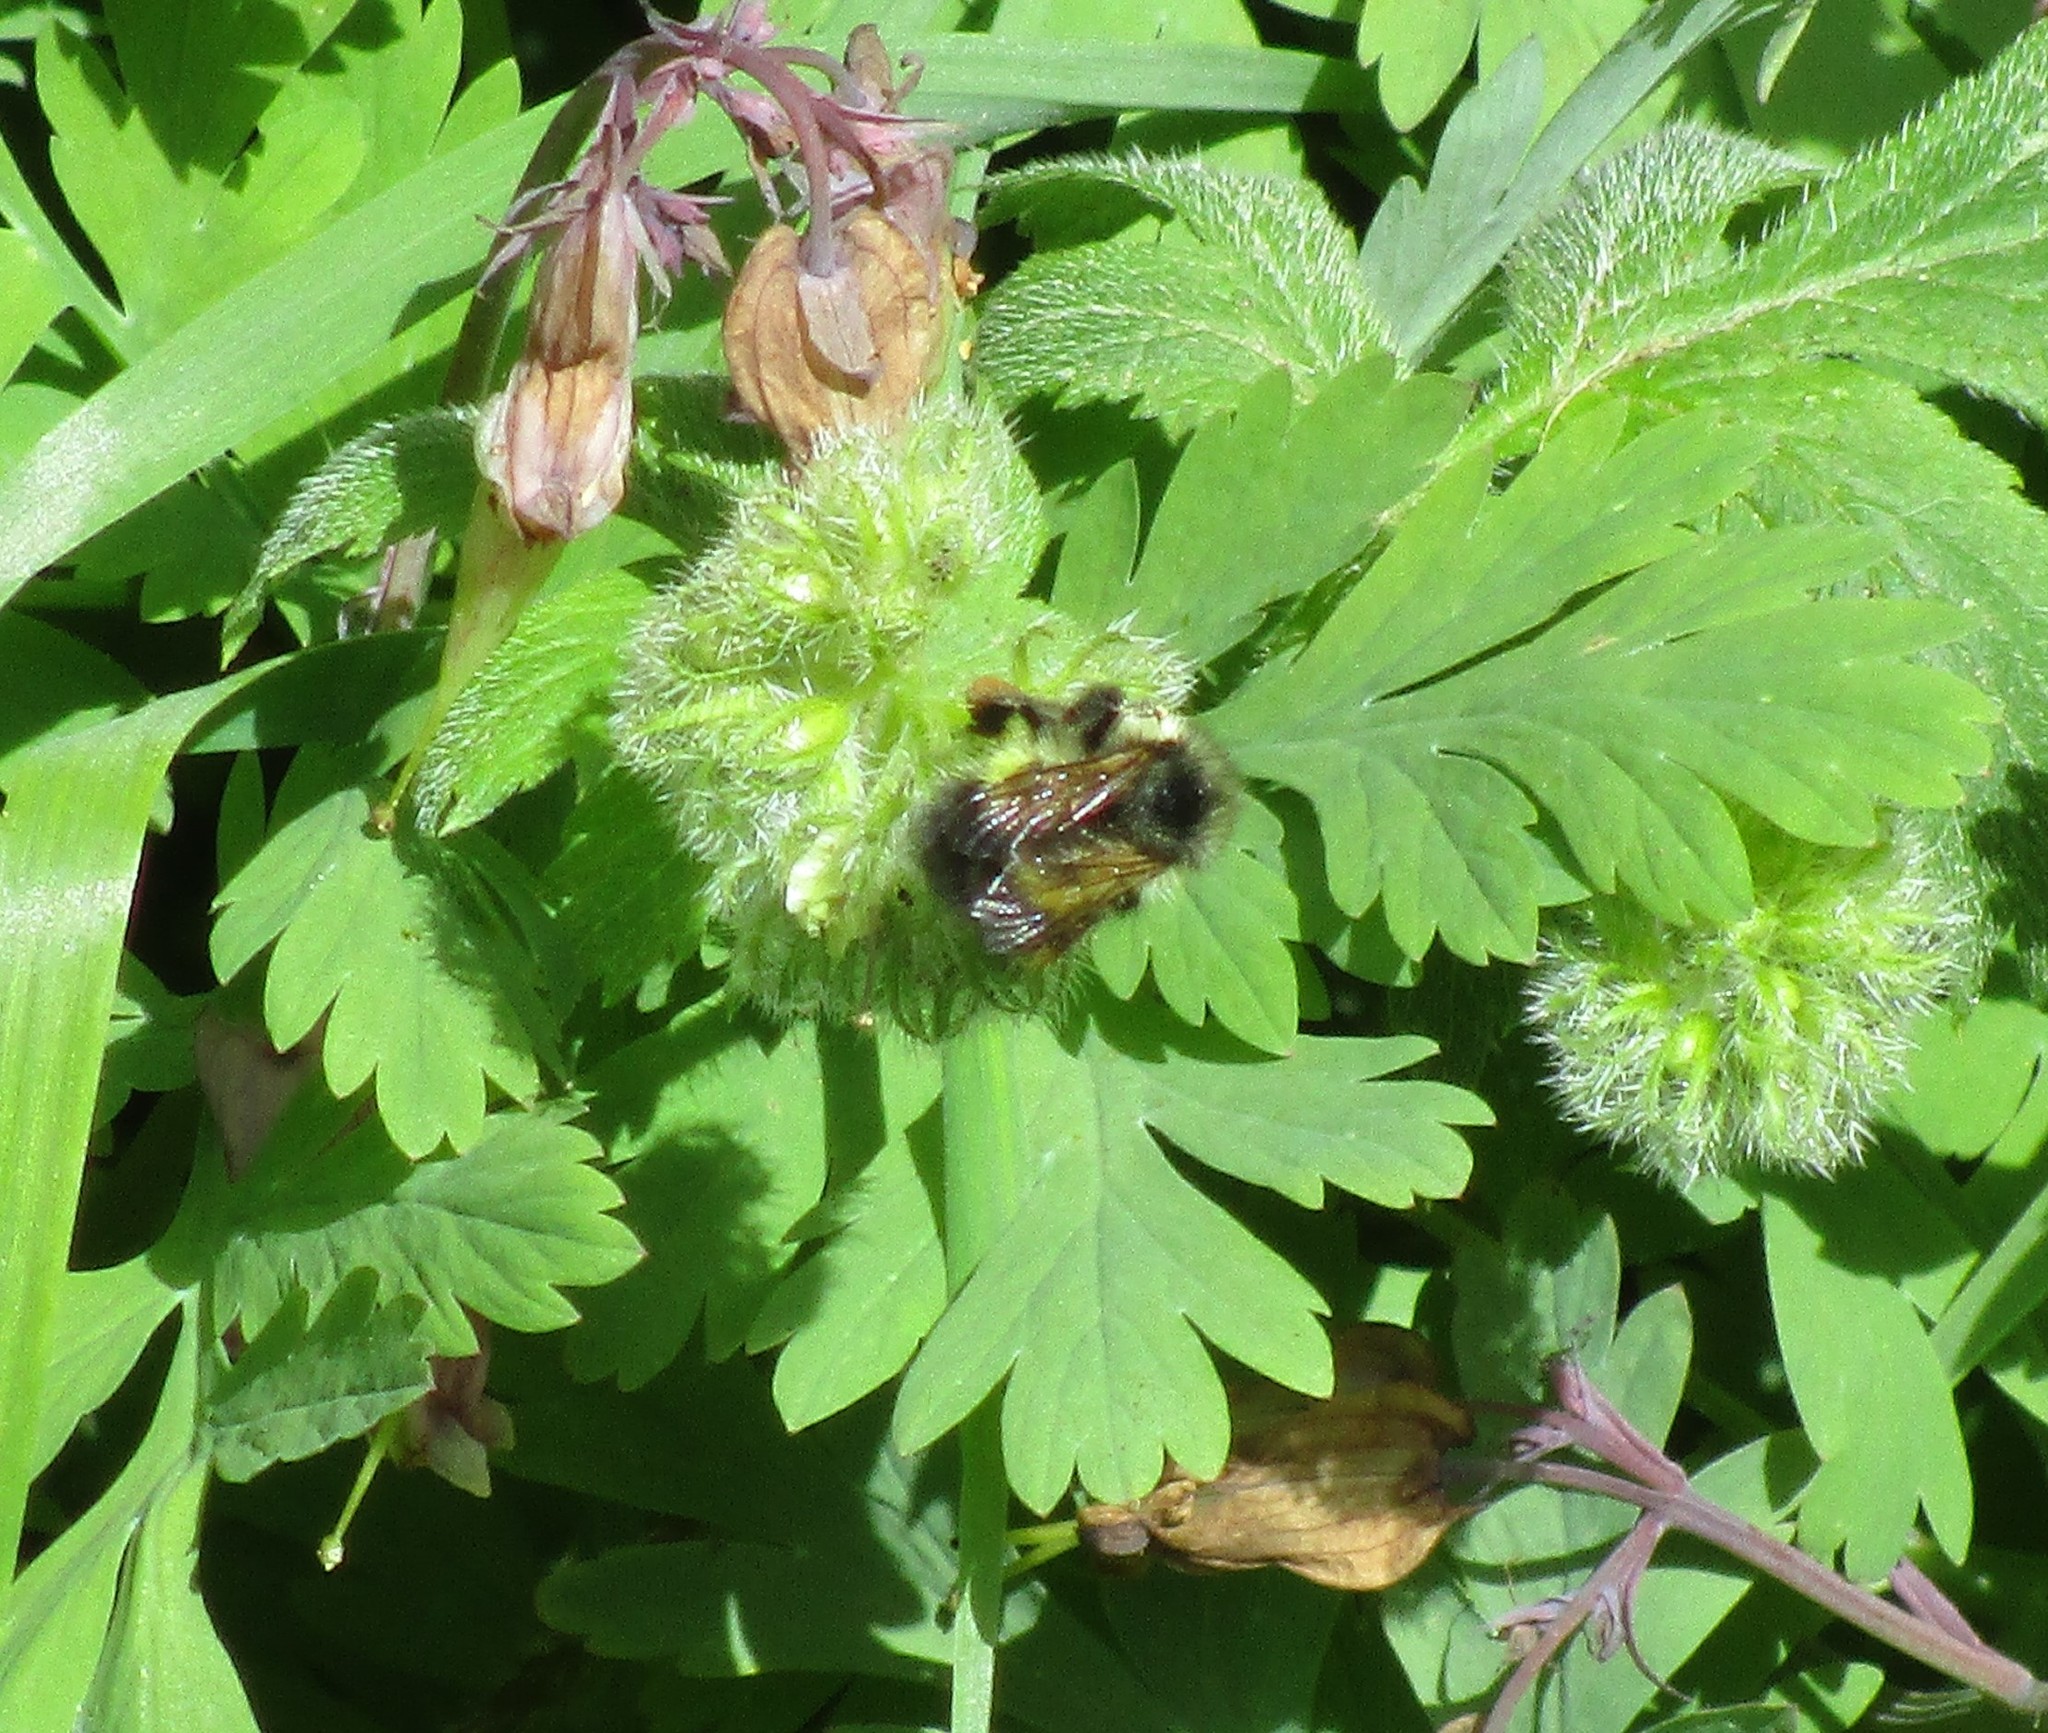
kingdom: Animalia
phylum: Arthropoda
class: Insecta
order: Hymenoptera
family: Apidae
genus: Bombus
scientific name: Bombus flavifrons
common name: Yellow head bumble bee
